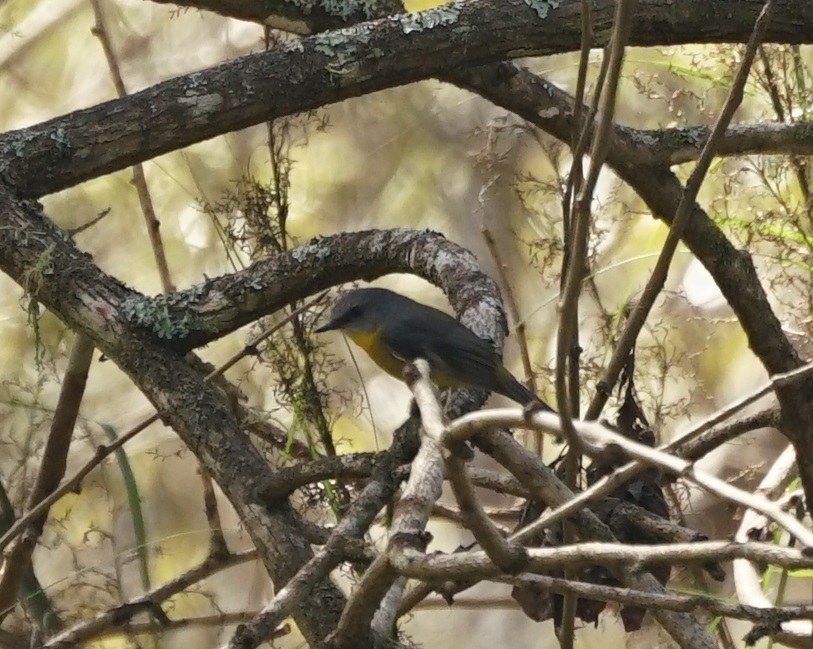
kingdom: Animalia
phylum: Chordata
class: Aves
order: Passeriformes
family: Petroicidae
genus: Eopsaltria
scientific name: Eopsaltria australis
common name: Eastern yellow robin
